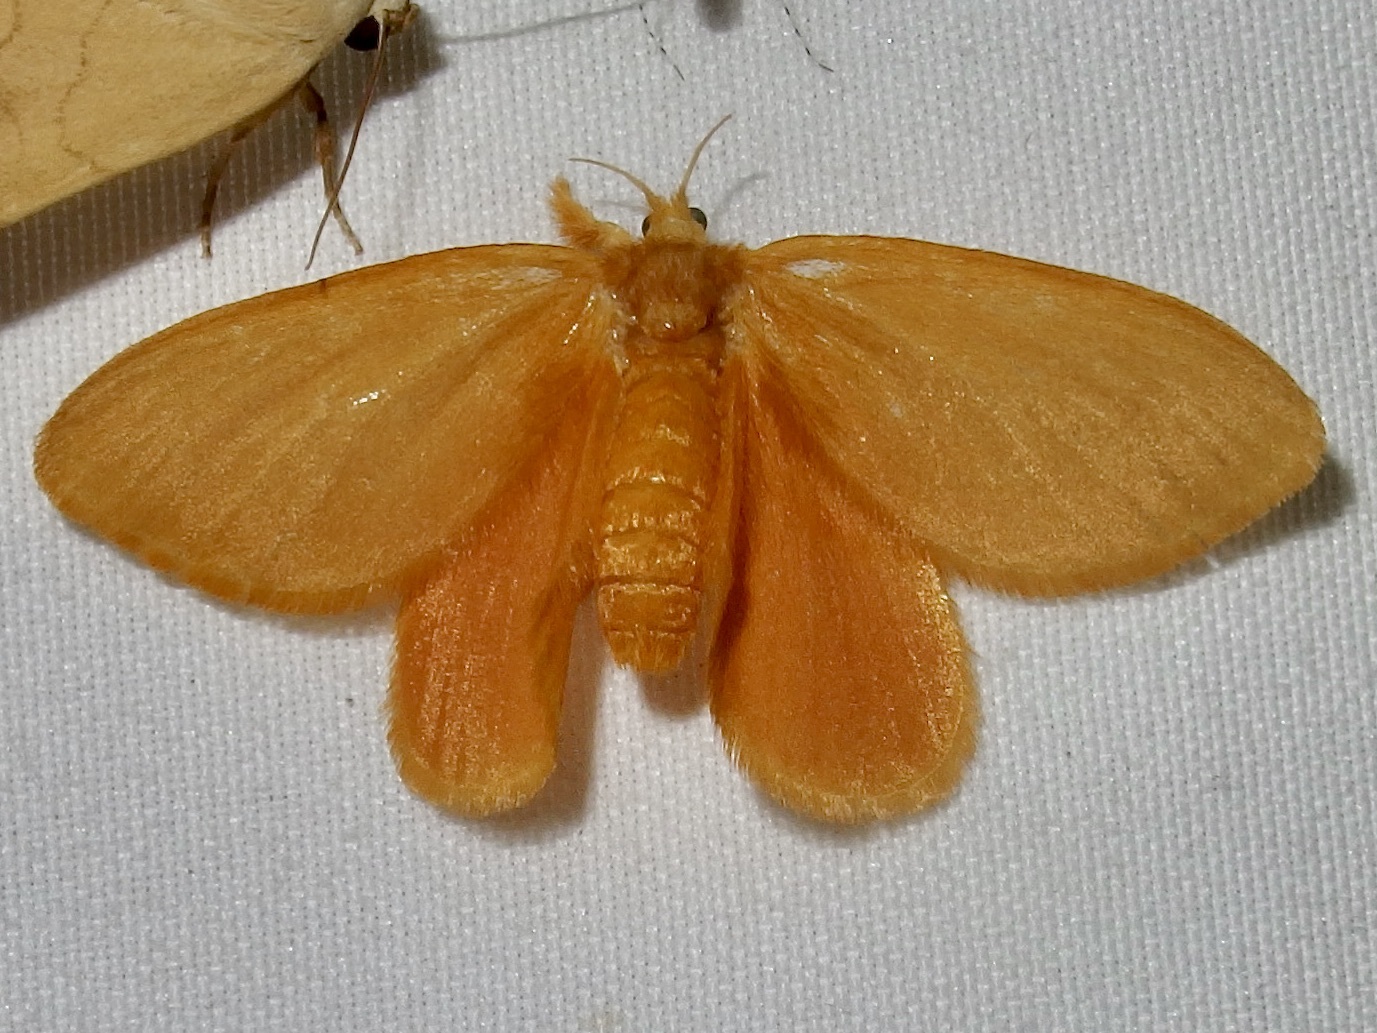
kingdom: Animalia
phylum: Arthropoda
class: Insecta
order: Lepidoptera
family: Dalceridae
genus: Dalcerides
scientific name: Dalcerides ingenita
